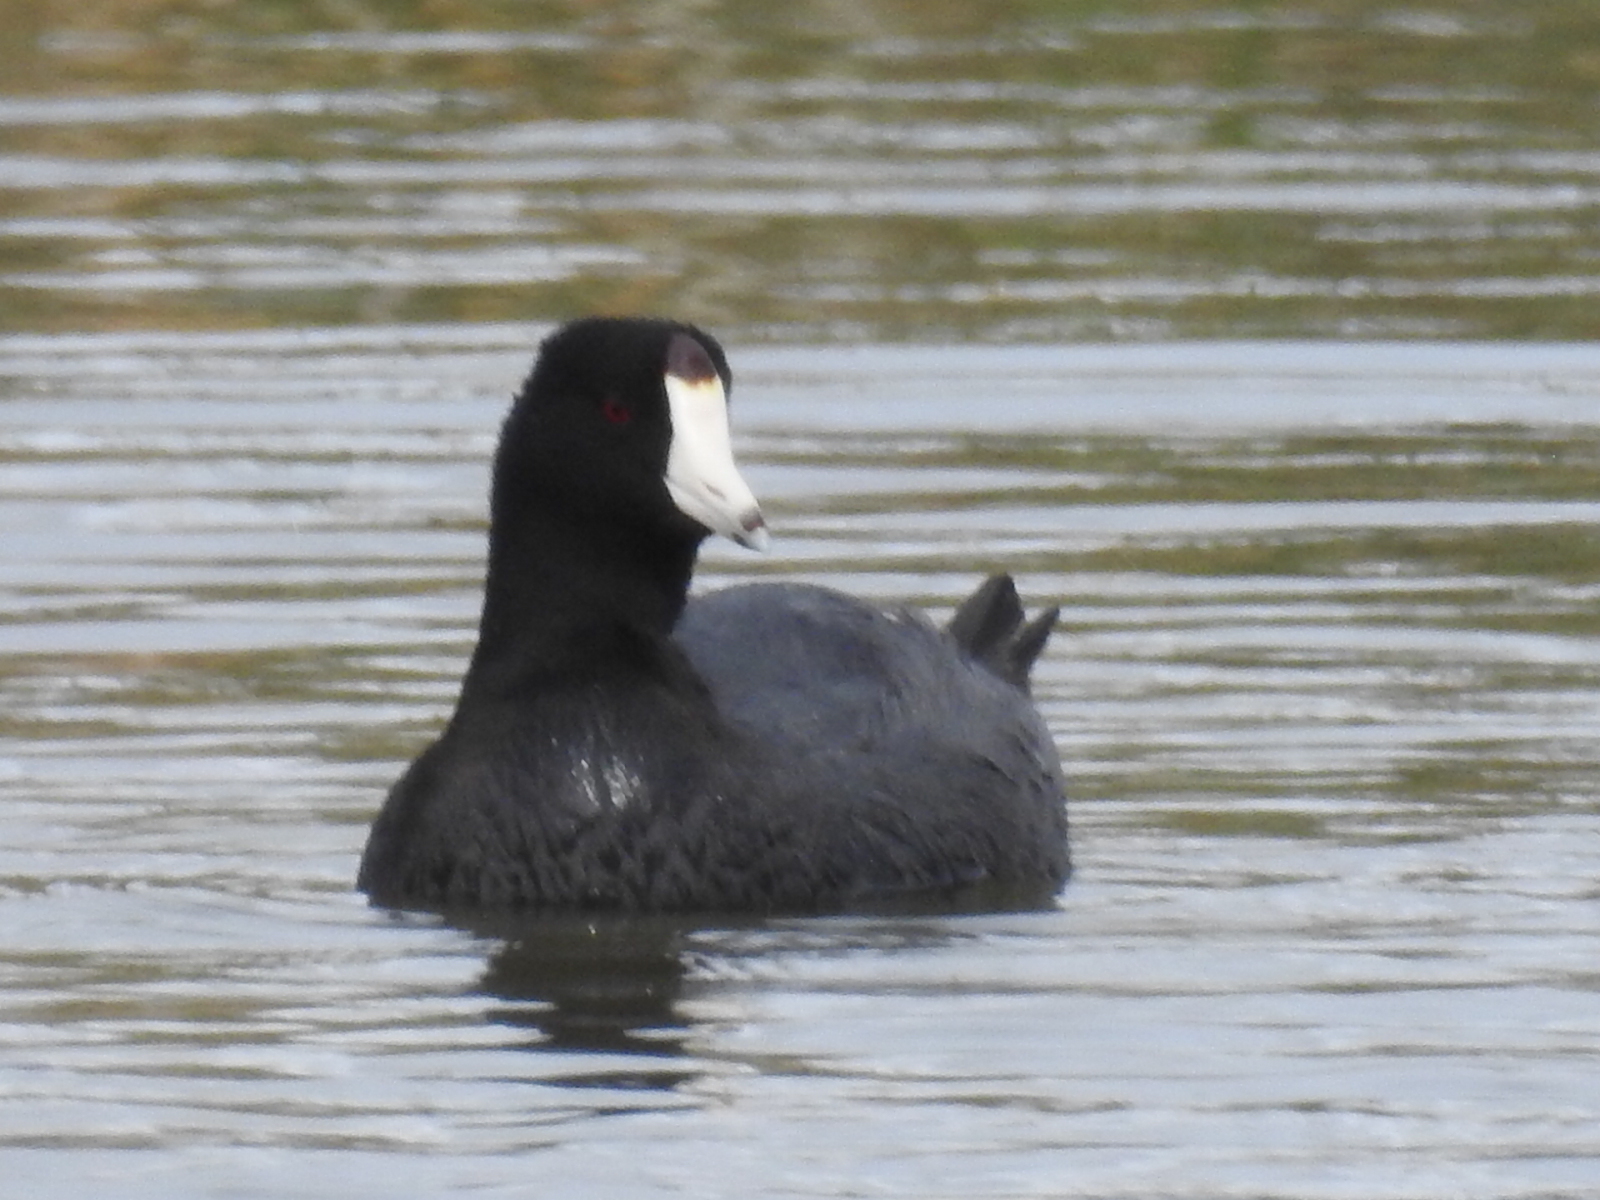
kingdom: Animalia
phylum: Chordata
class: Aves
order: Gruiformes
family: Rallidae
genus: Fulica
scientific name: Fulica americana
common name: American coot
